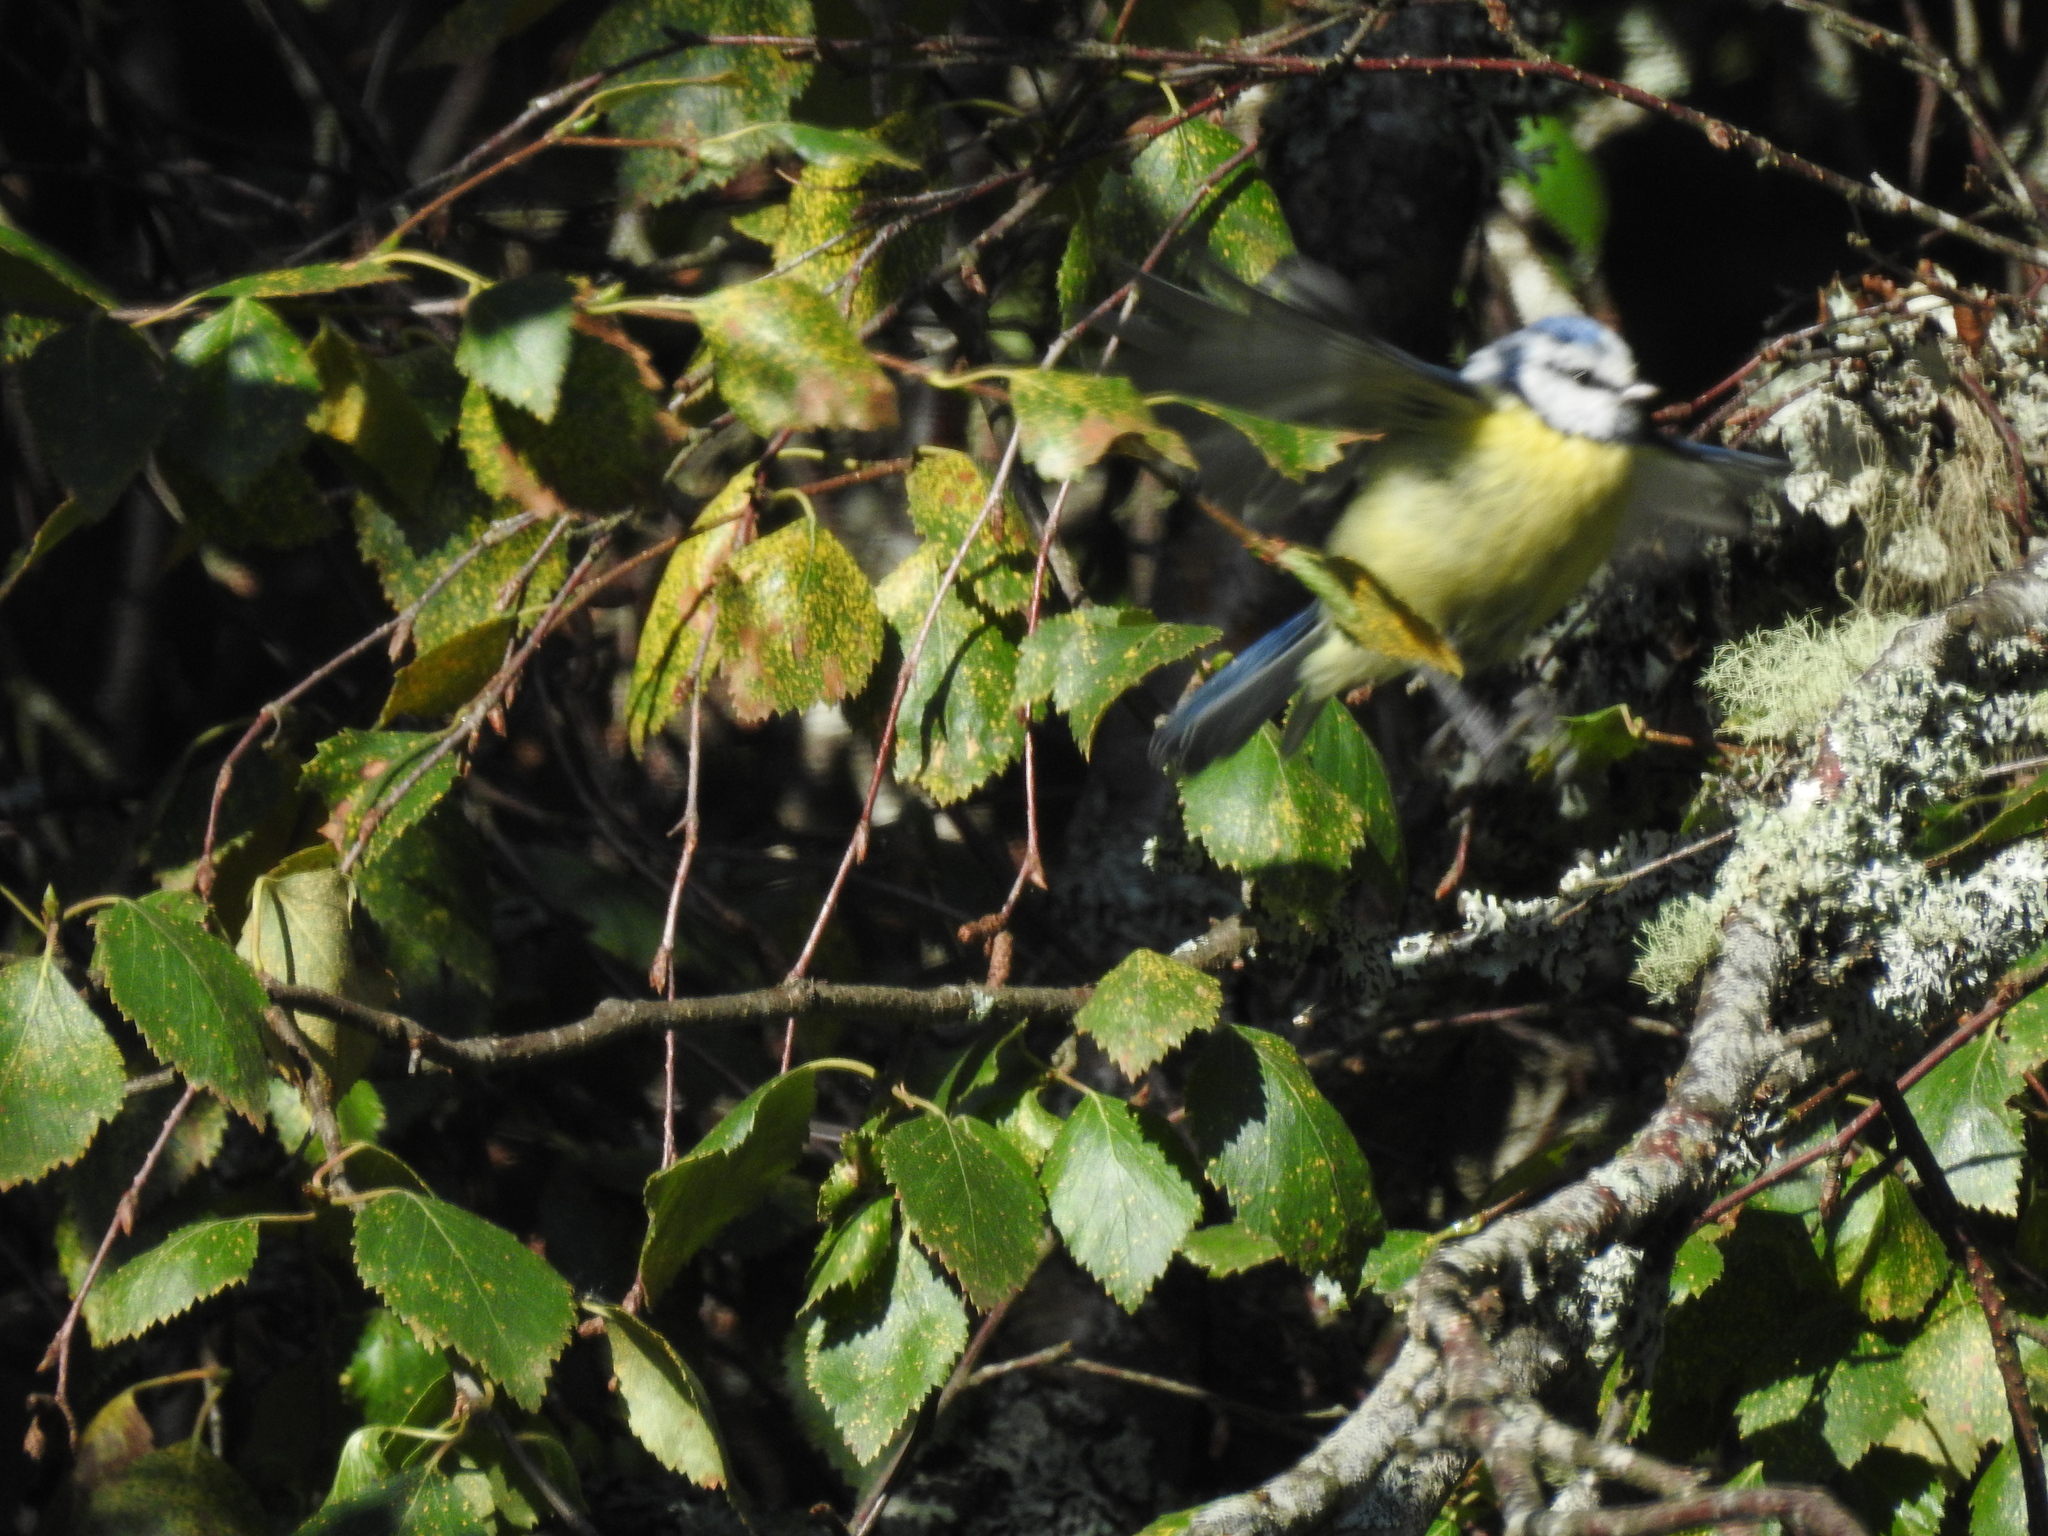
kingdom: Animalia
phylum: Chordata
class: Aves
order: Passeriformes
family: Paridae
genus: Cyanistes
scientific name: Cyanistes caeruleus
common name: Eurasian blue tit
